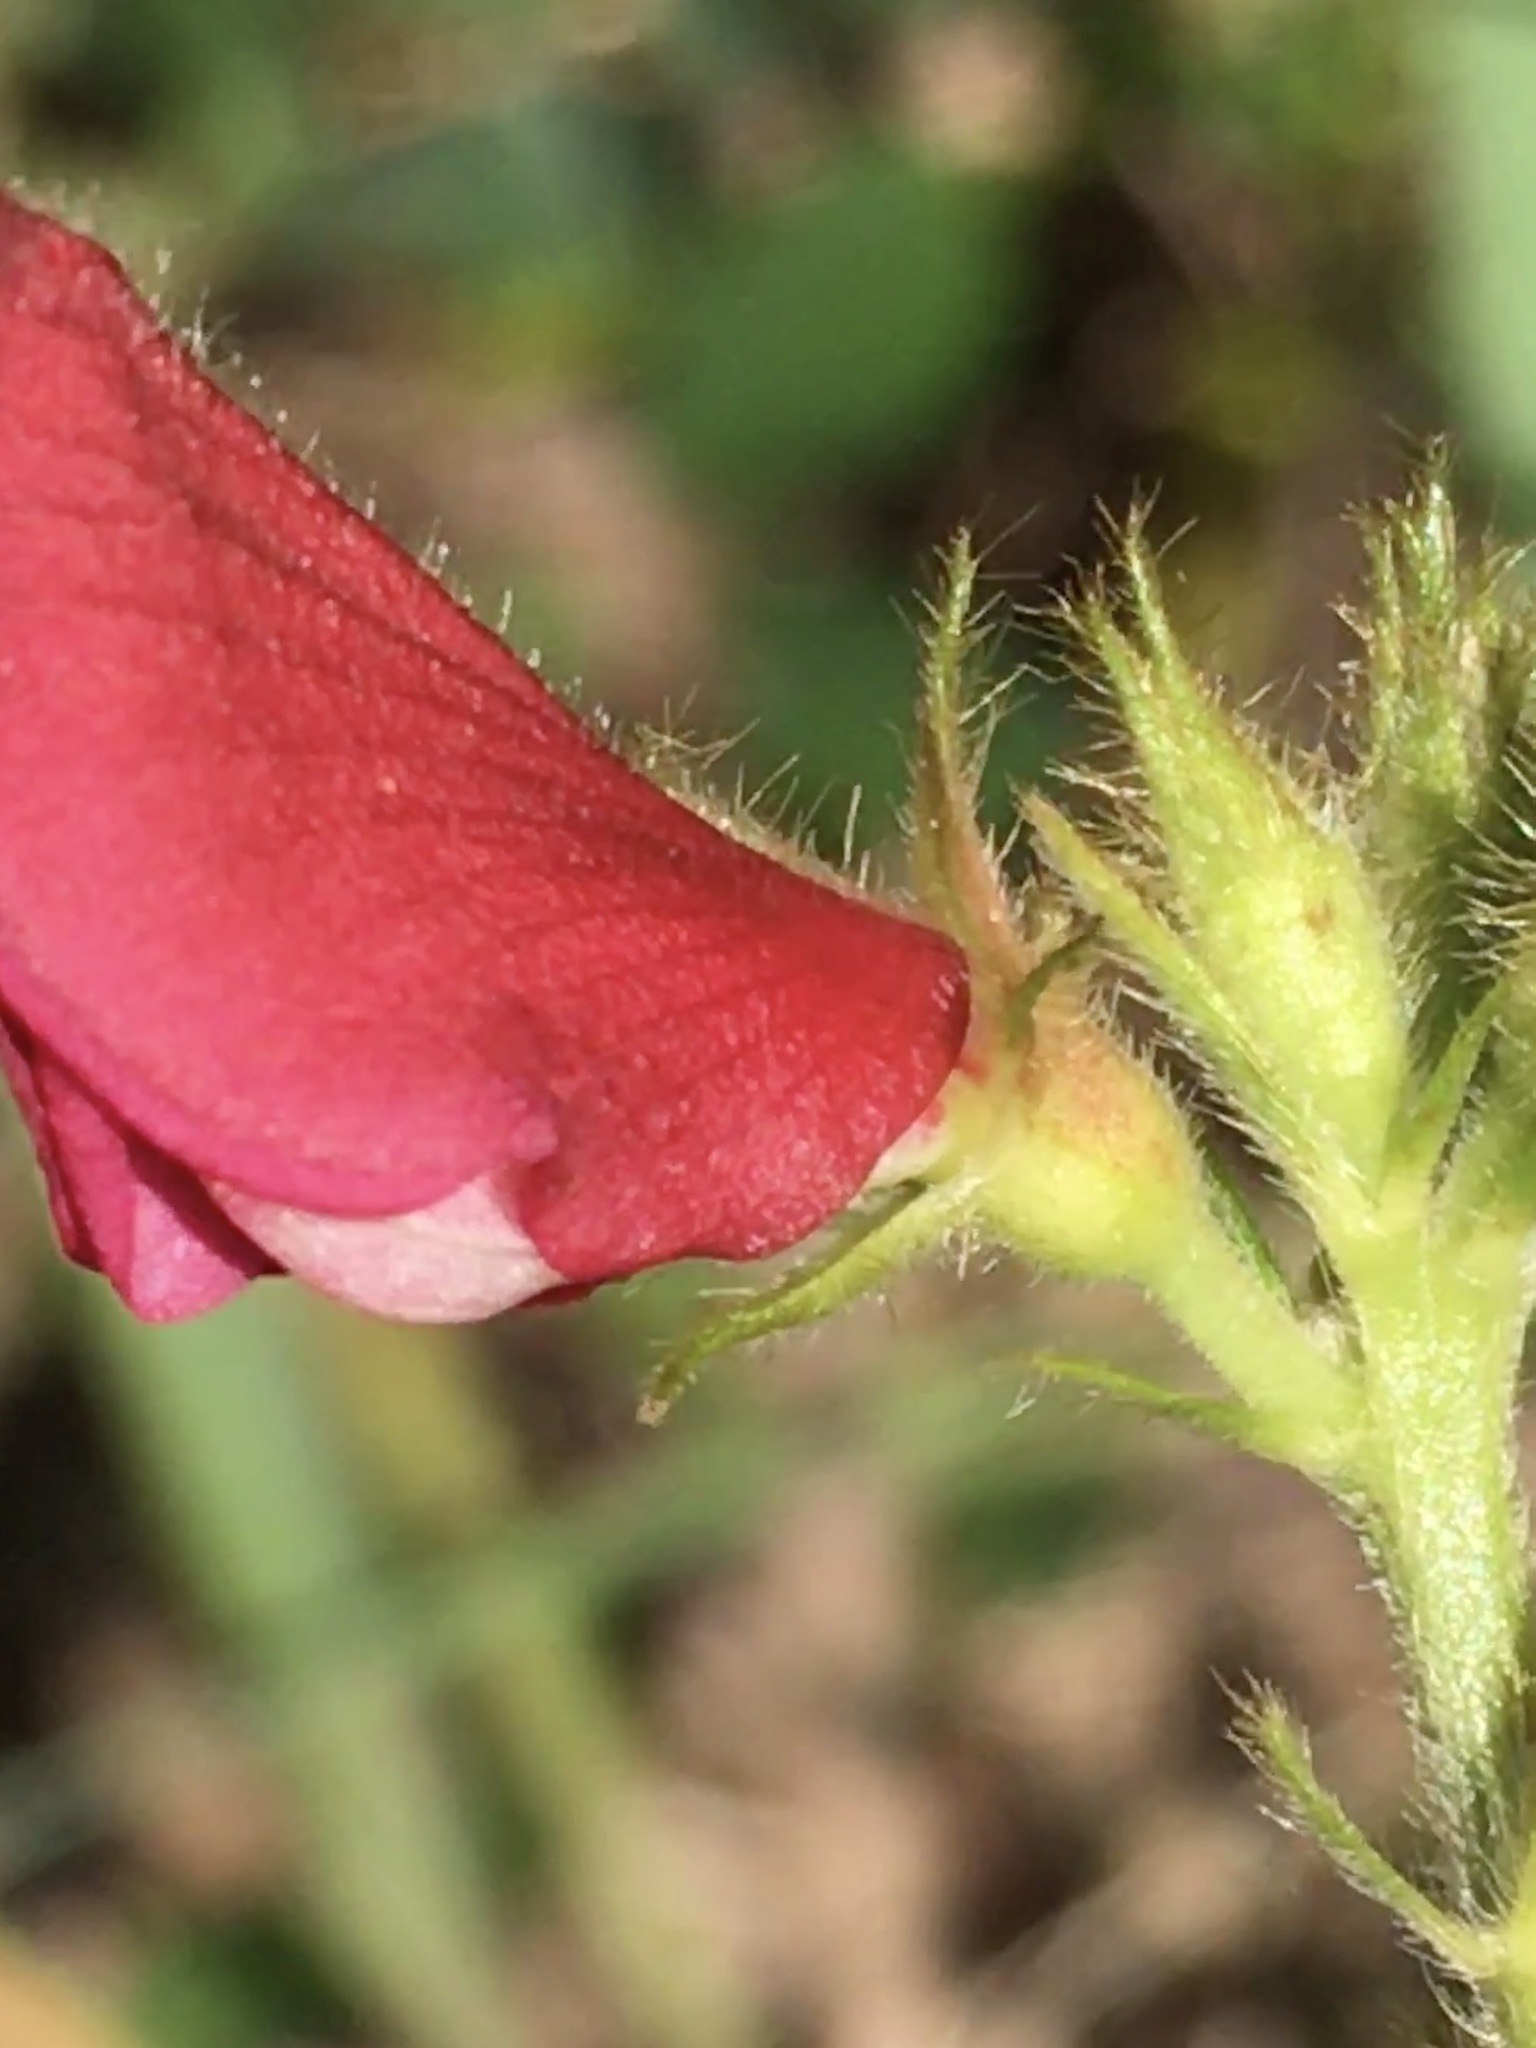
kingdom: Plantae
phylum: Tracheophyta
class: Magnoliopsida
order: Fabales
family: Fabaceae
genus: Tephrosia
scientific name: Tephrosia spicata
